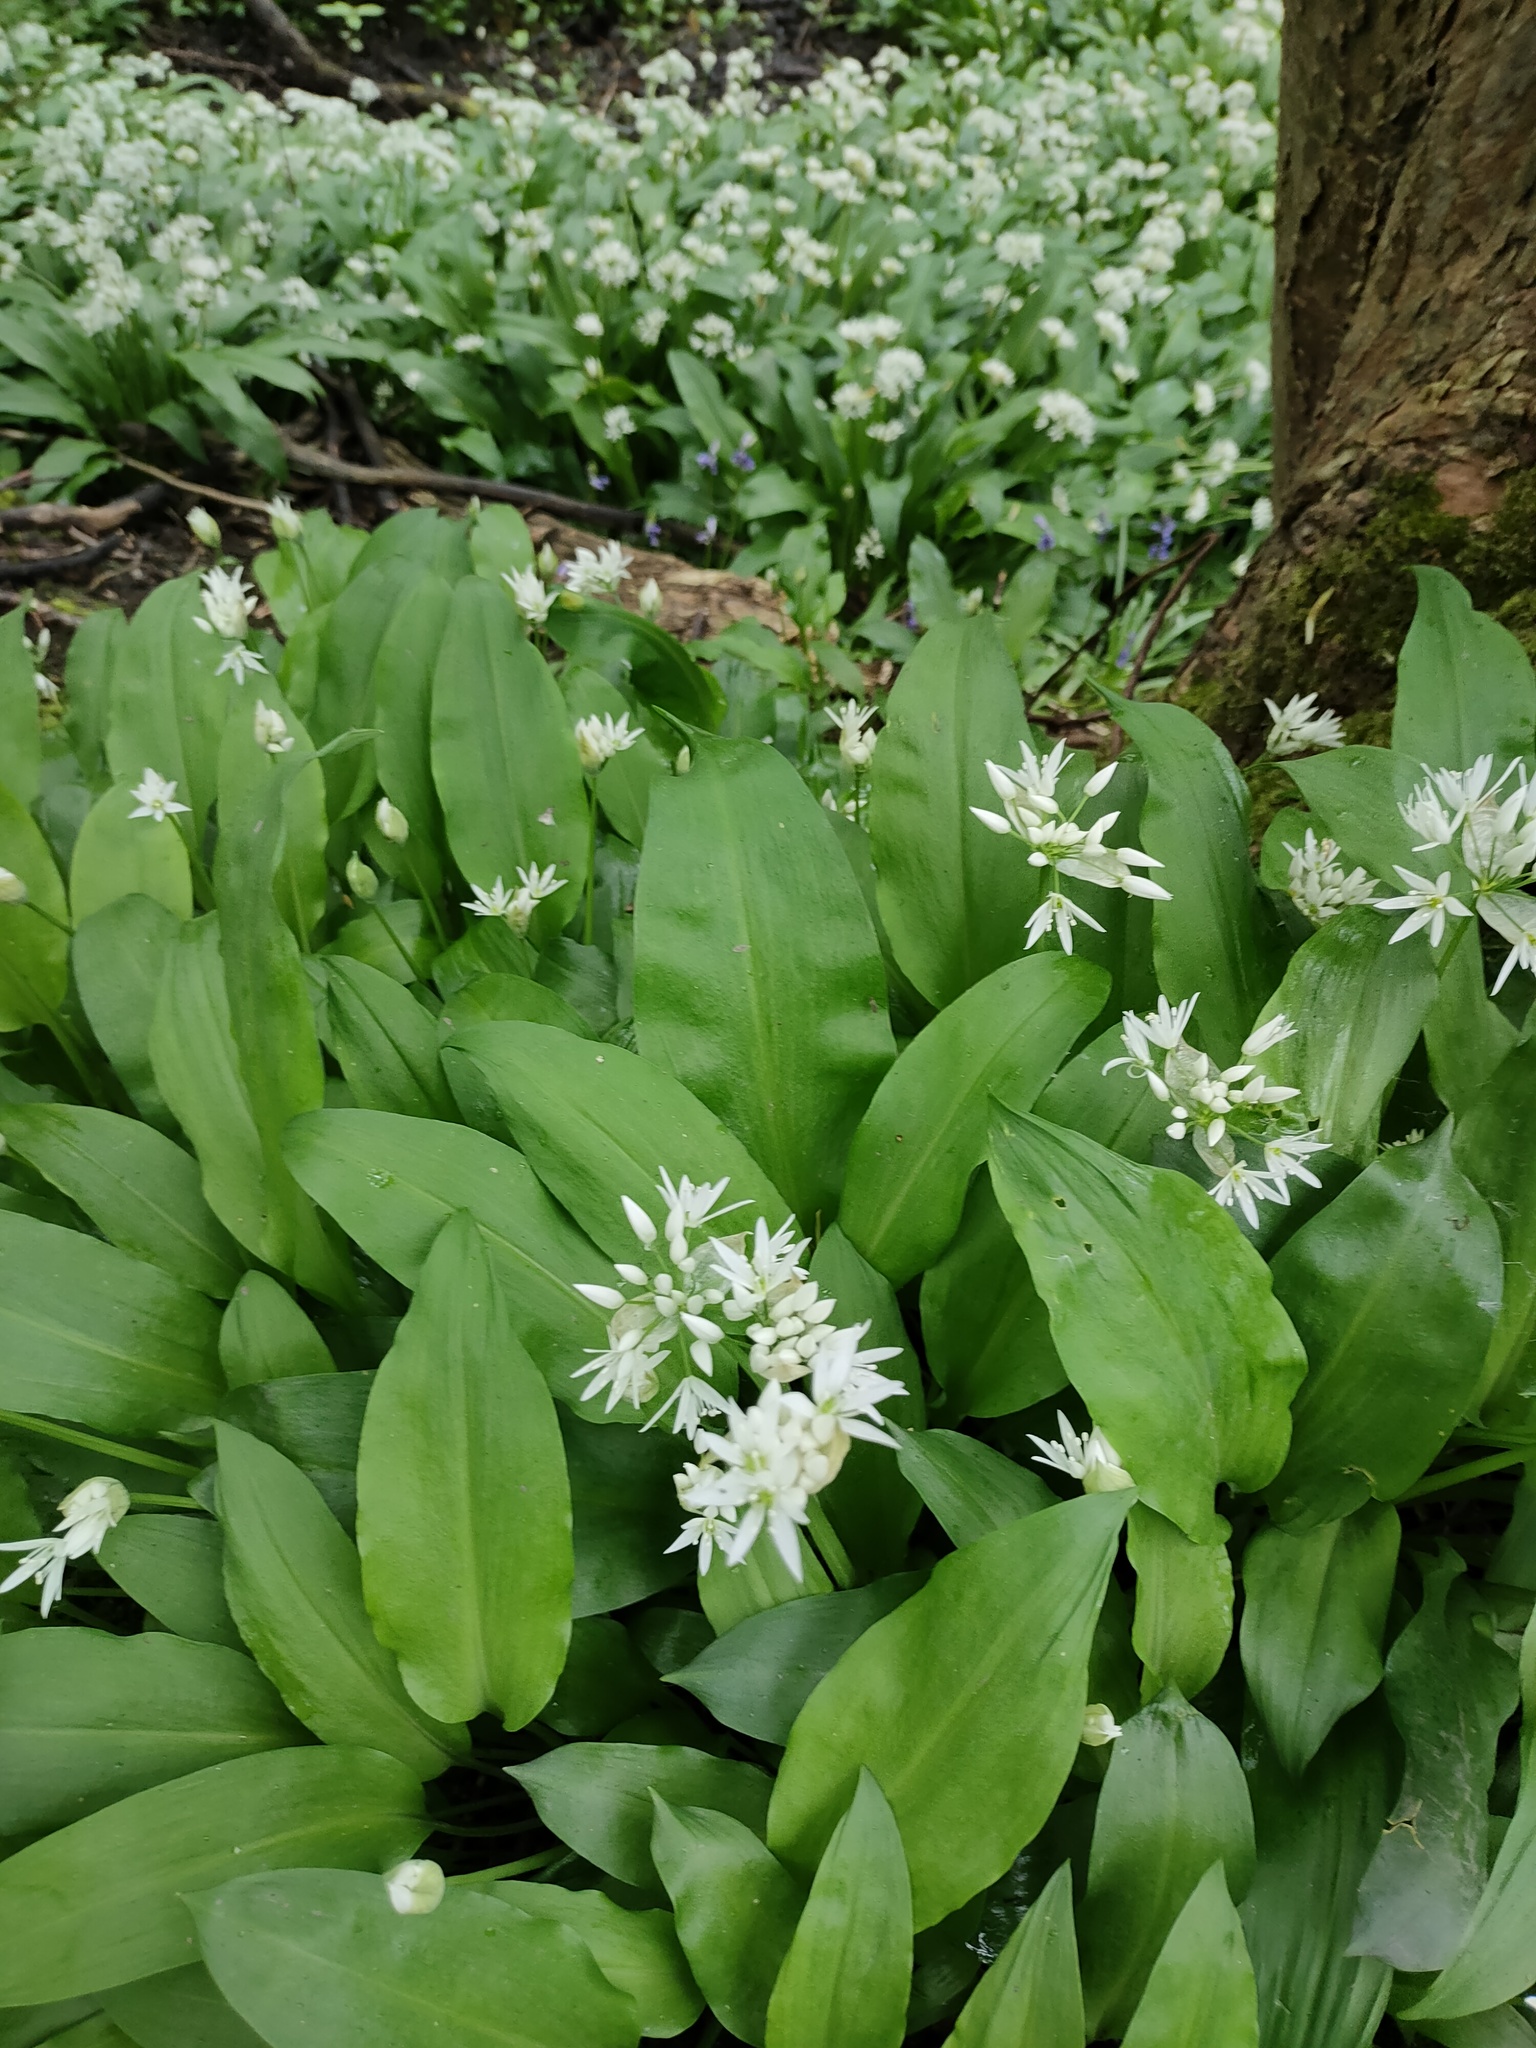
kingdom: Plantae
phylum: Tracheophyta
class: Liliopsida
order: Asparagales
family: Amaryllidaceae
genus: Allium
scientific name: Allium ursinum
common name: Ramsons
